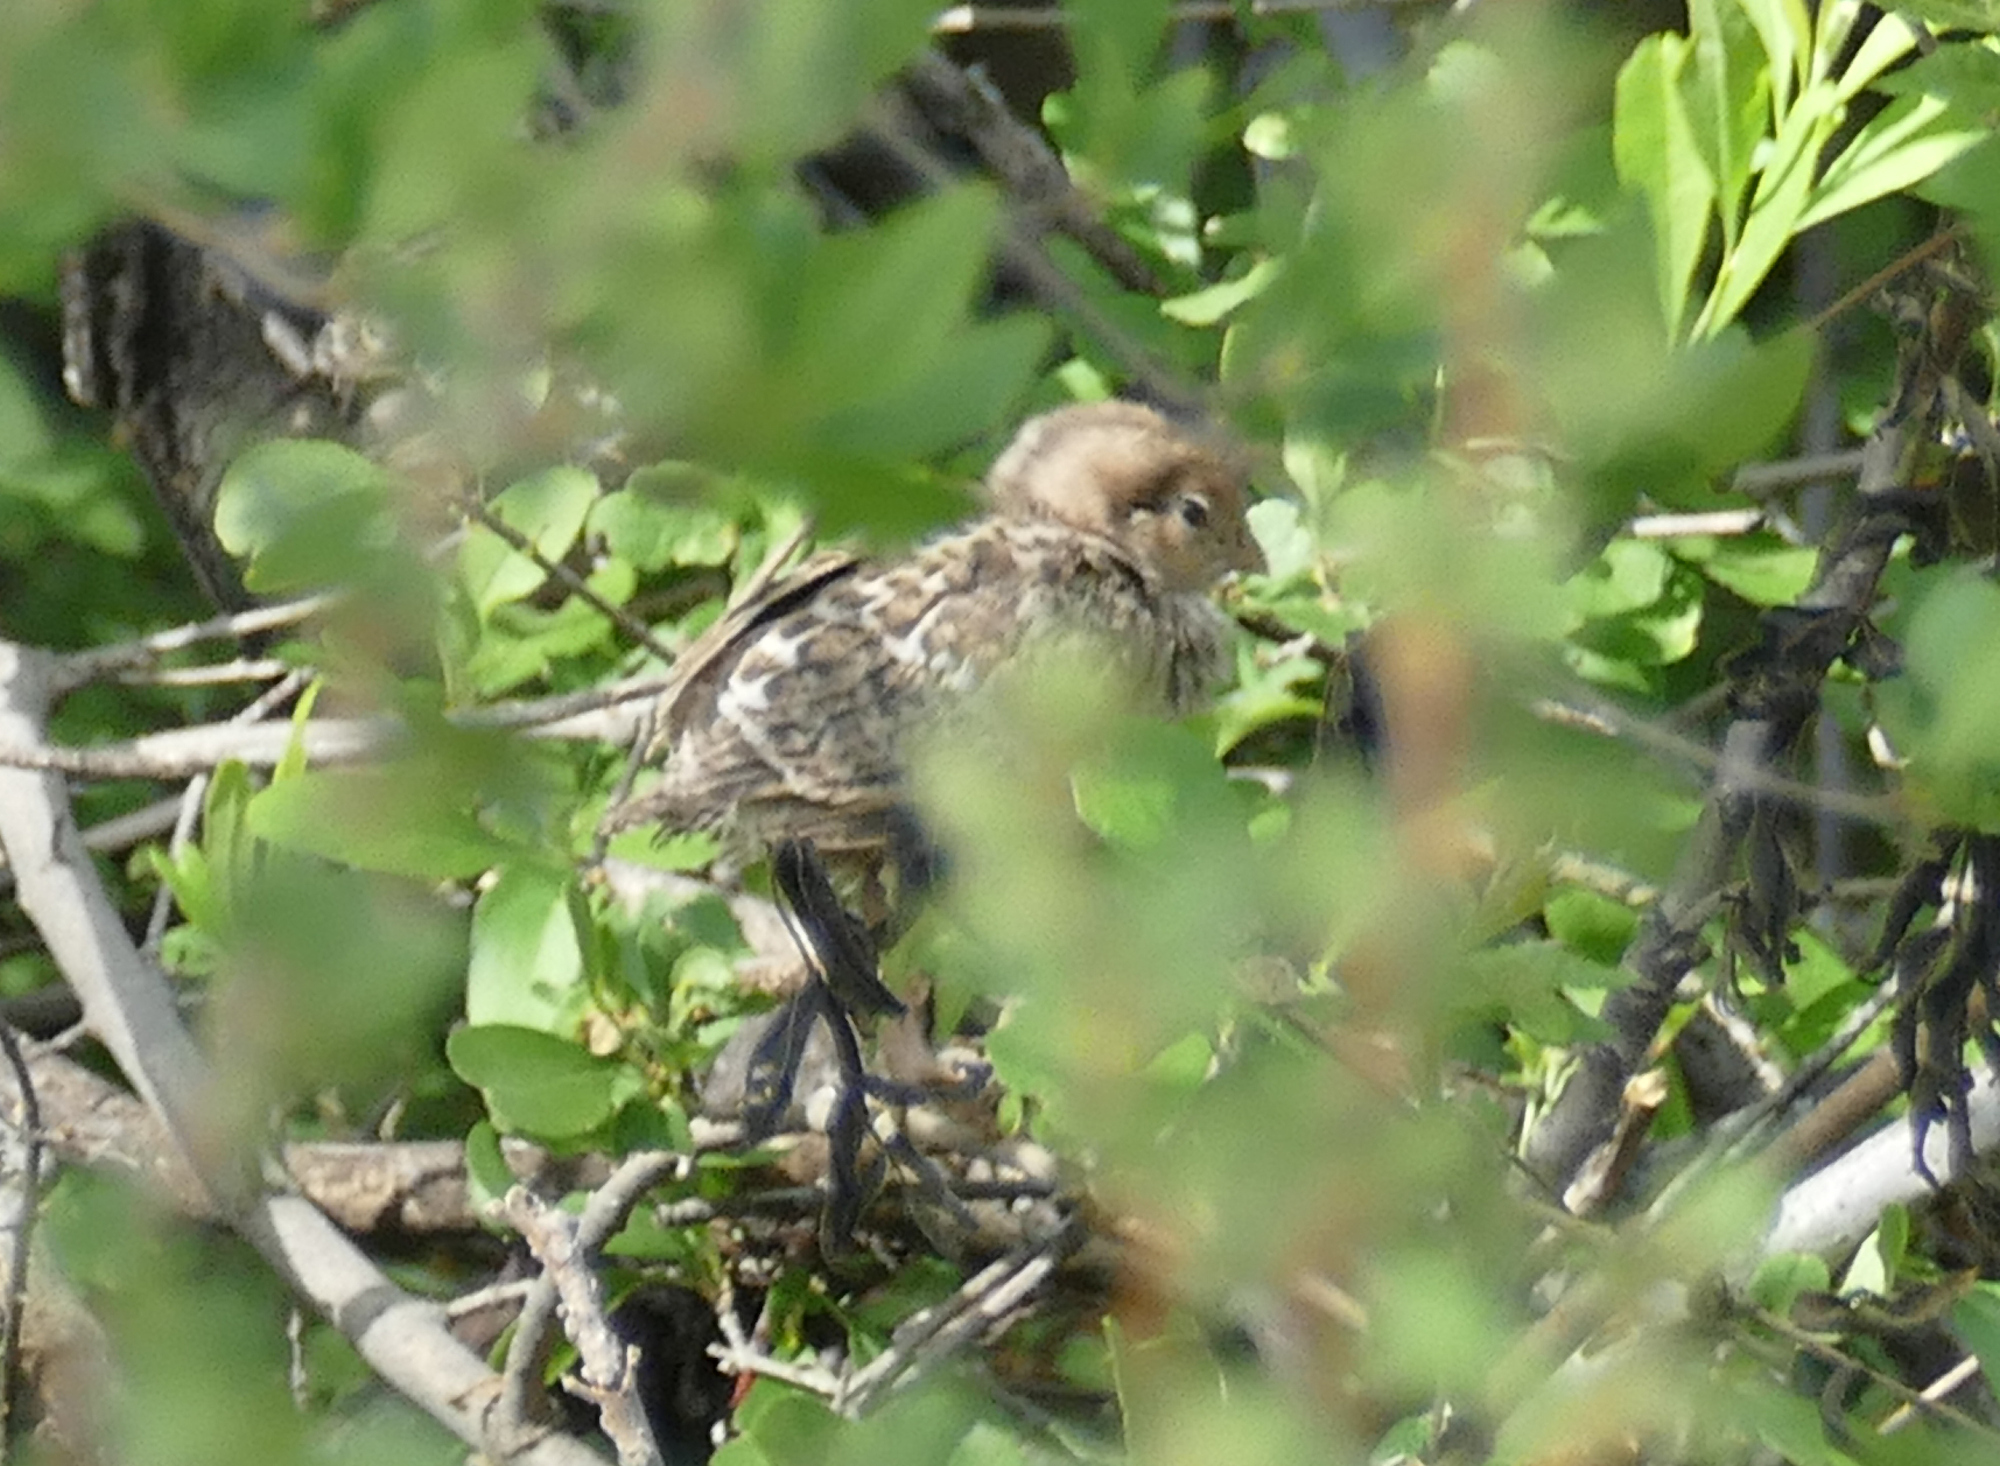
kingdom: Animalia
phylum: Chordata
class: Aves
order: Galliformes
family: Odontophoridae
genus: Callipepla
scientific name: Callipepla gambelii
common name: Gambel's quail
